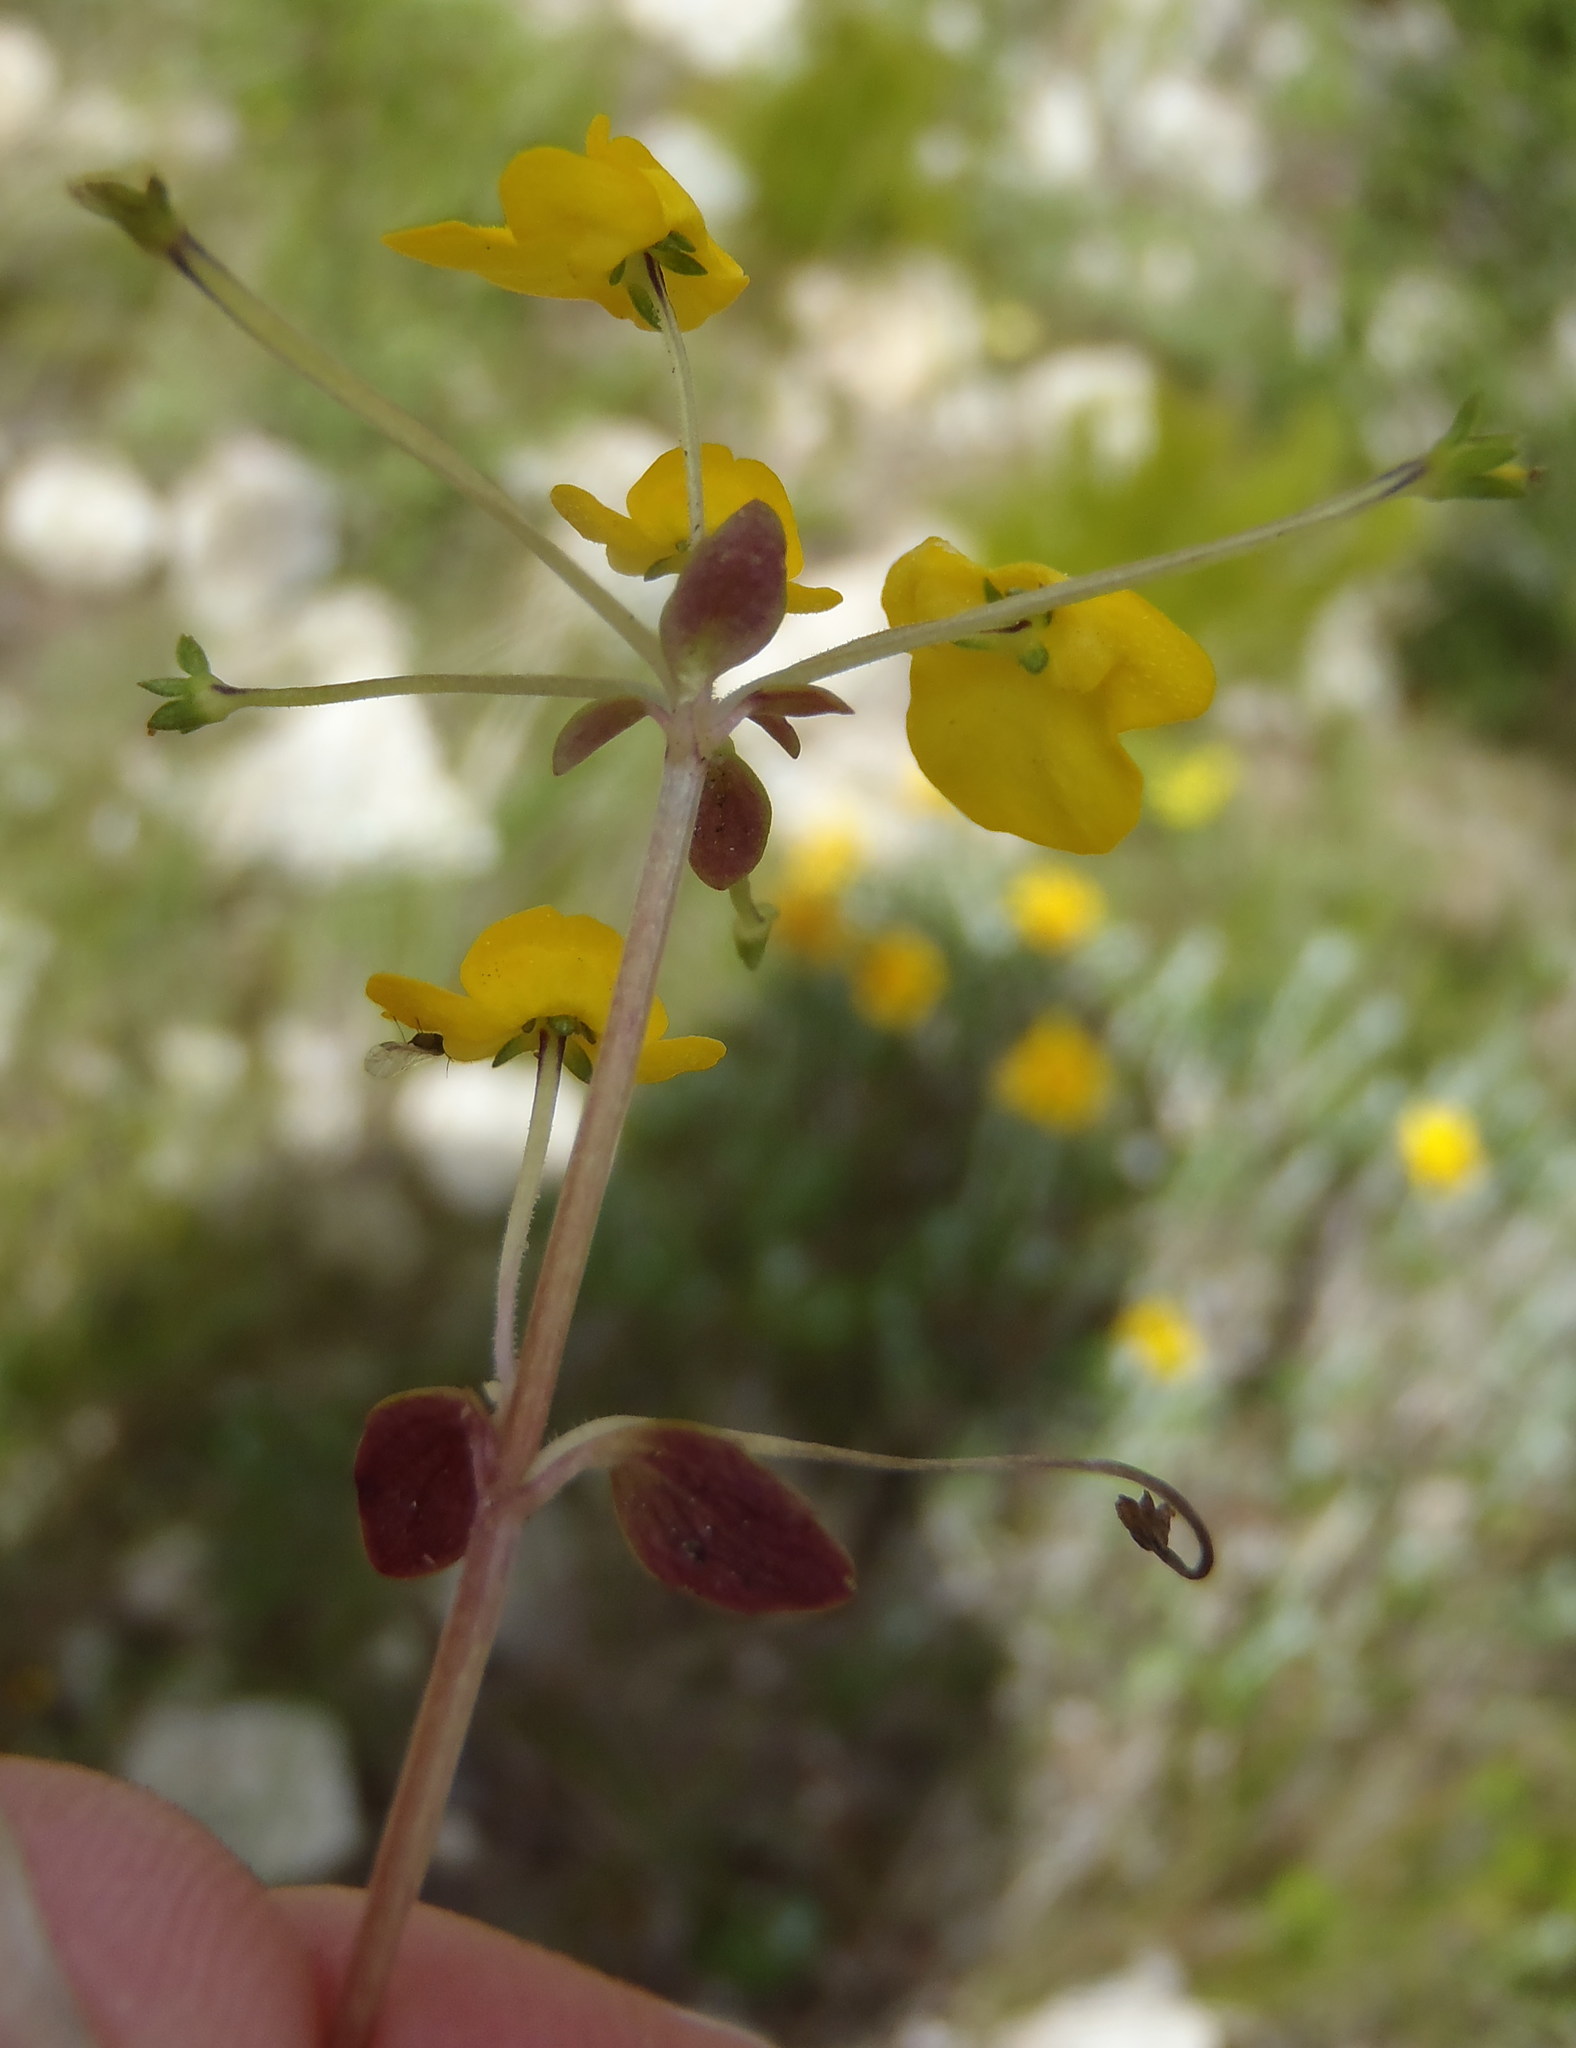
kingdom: Plantae
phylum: Tracheophyta
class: Magnoliopsida
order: Lamiales
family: Scrophulariaceae
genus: Hemimeris
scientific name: Hemimeris racemosa
